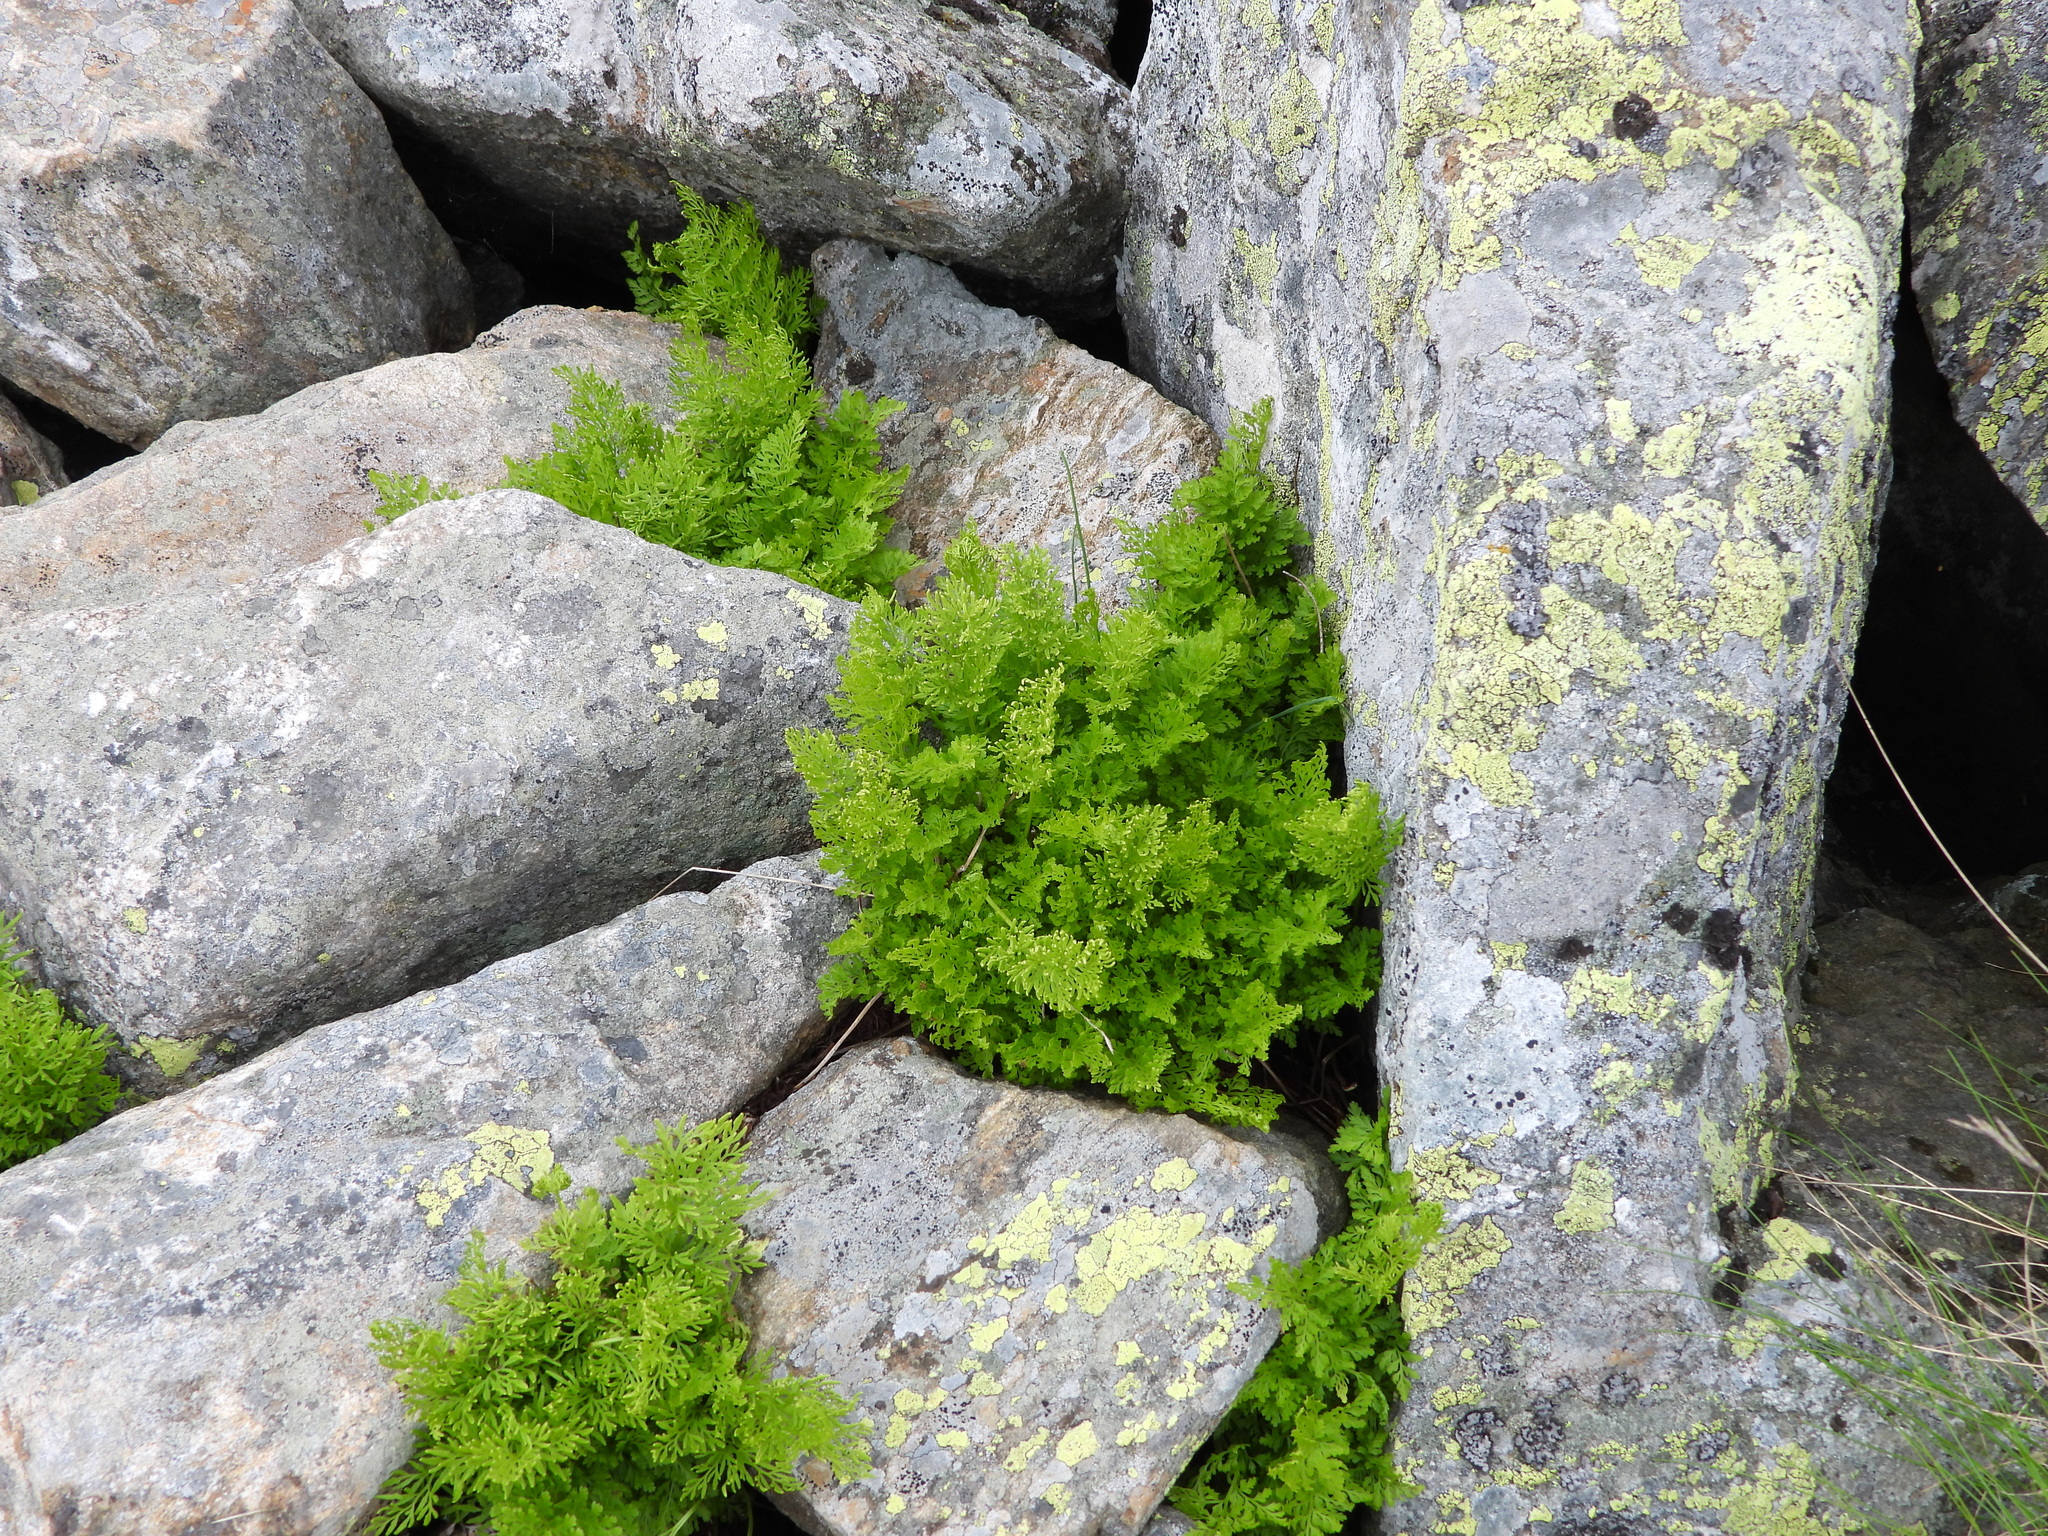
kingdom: Plantae
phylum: Tracheophyta
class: Polypodiopsida
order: Polypodiales
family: Pteridaceae
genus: Cryptogramma
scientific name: Cryptogramma crispa
